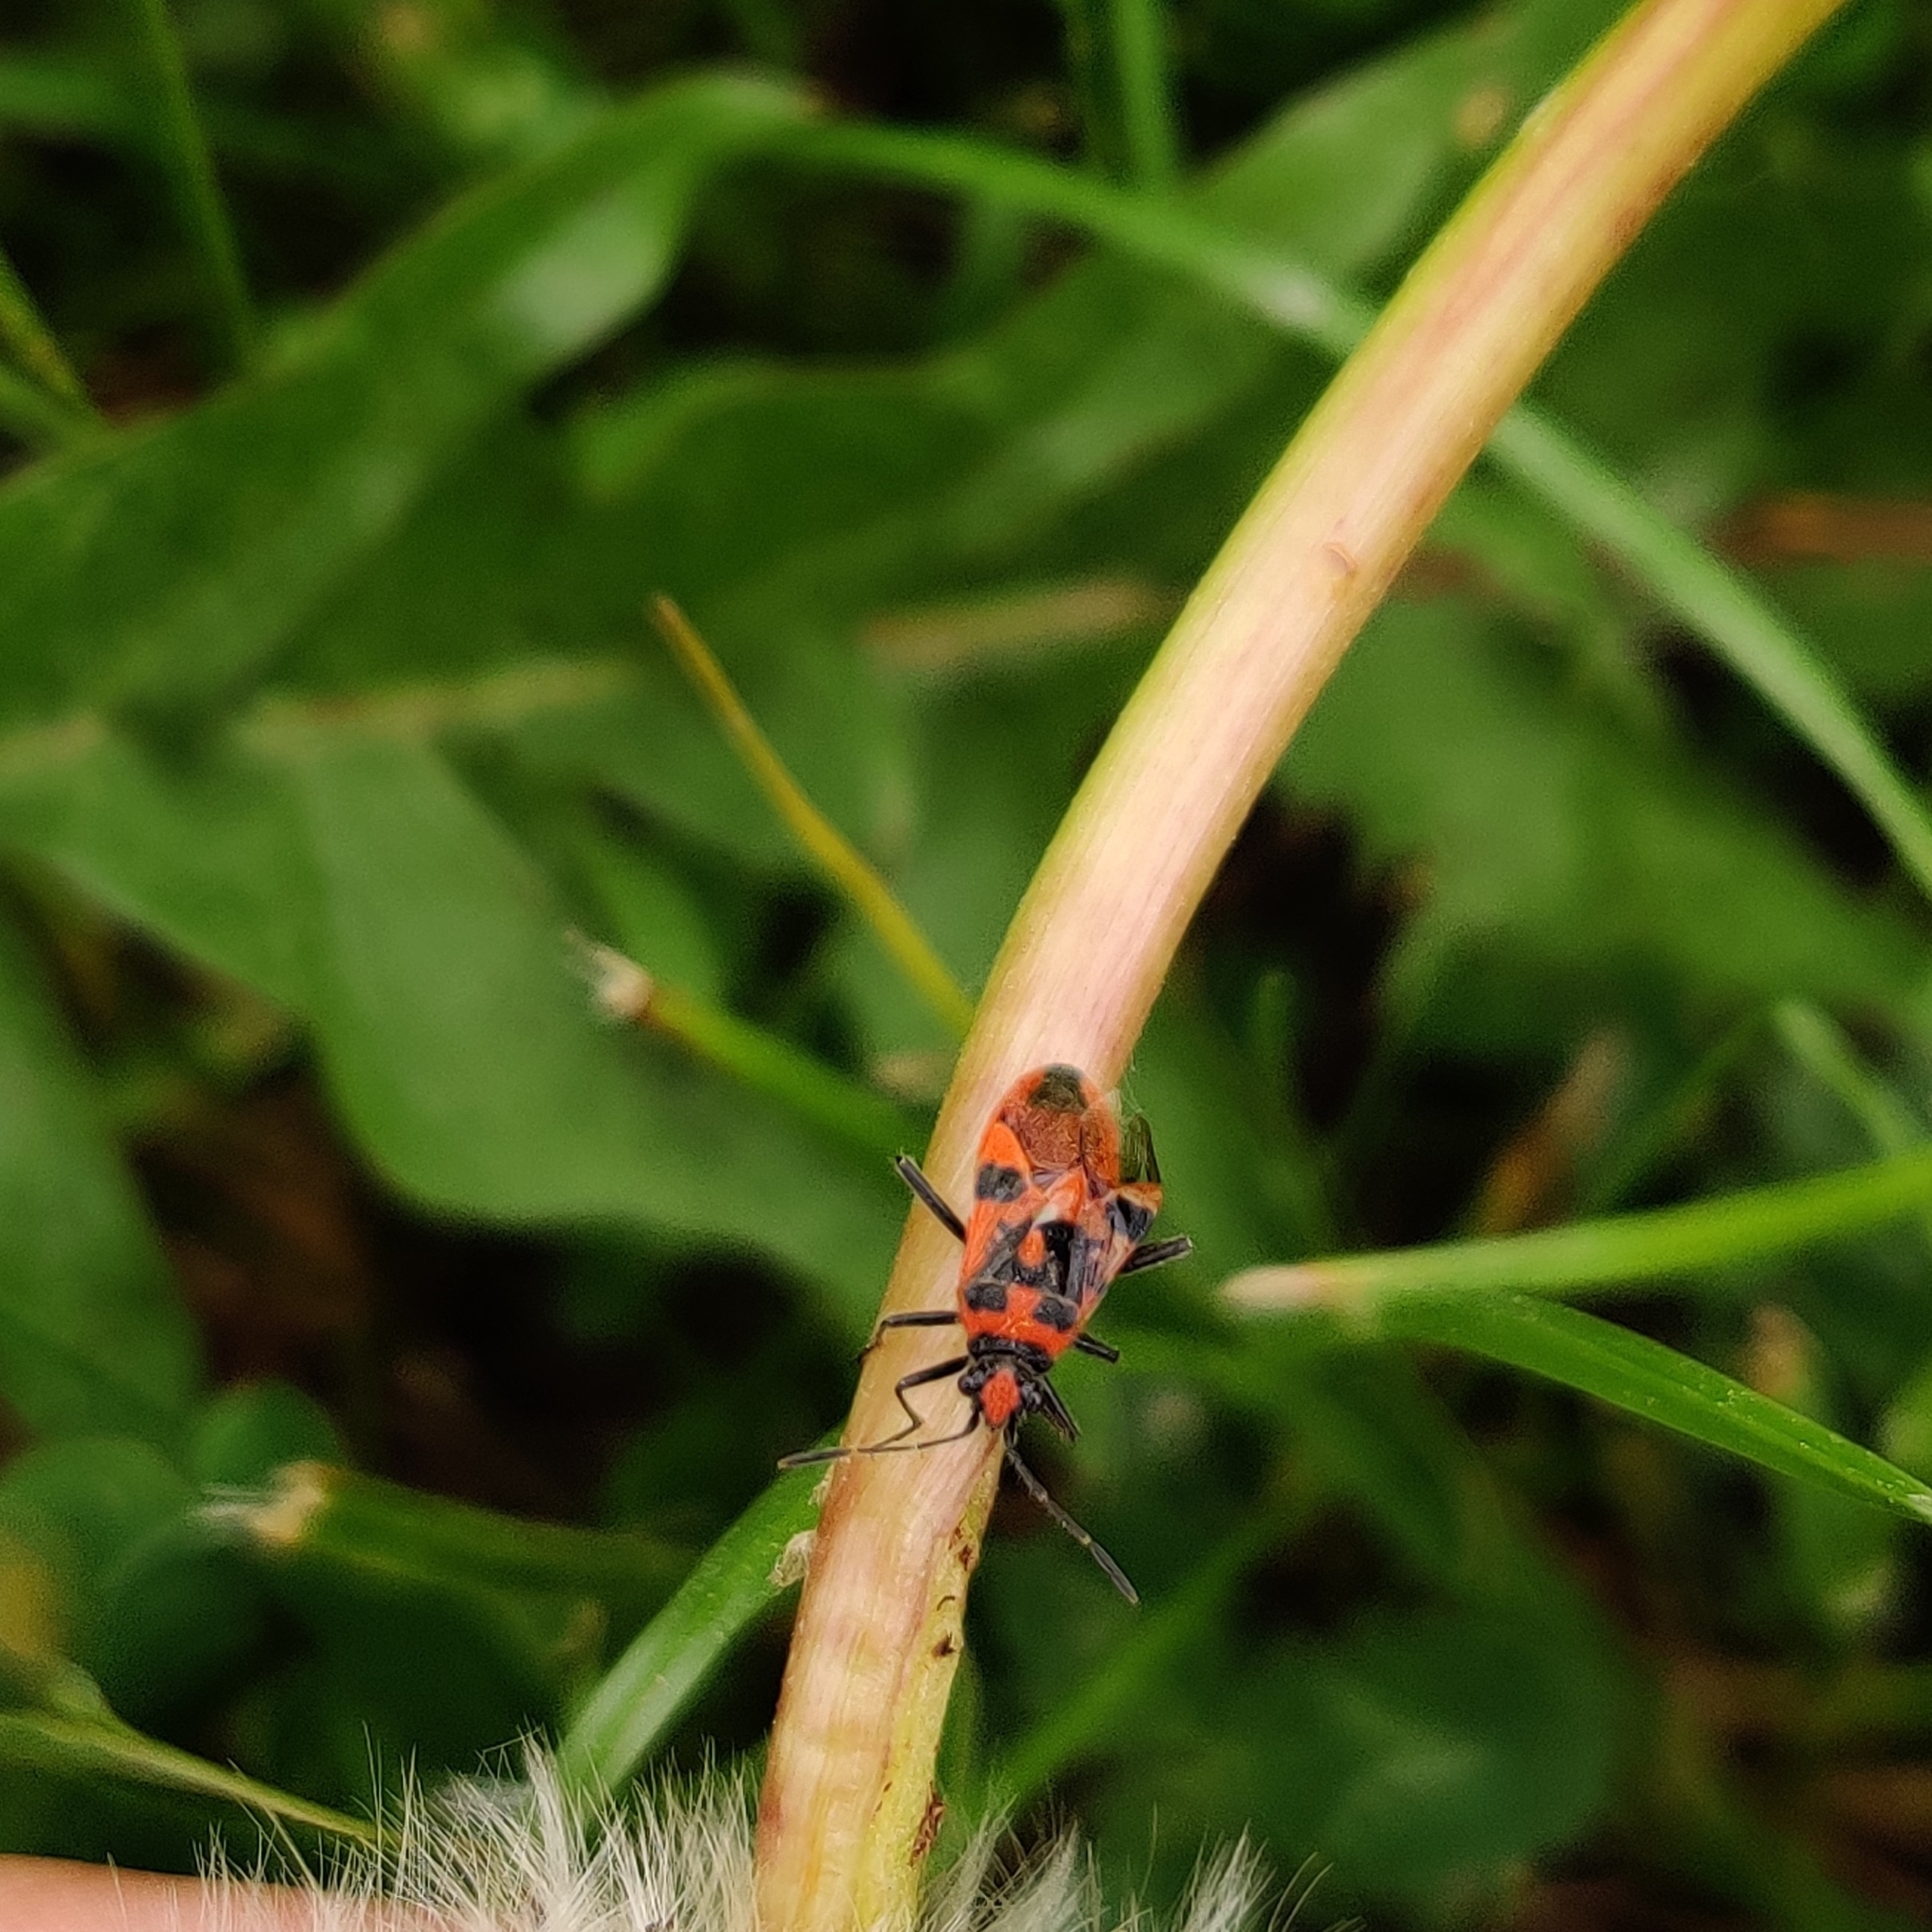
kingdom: Animalia
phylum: Arthropoda
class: Insecta
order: Hemiptera
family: Rhopalidae
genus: Corizus
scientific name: Corizus hyoscyami
